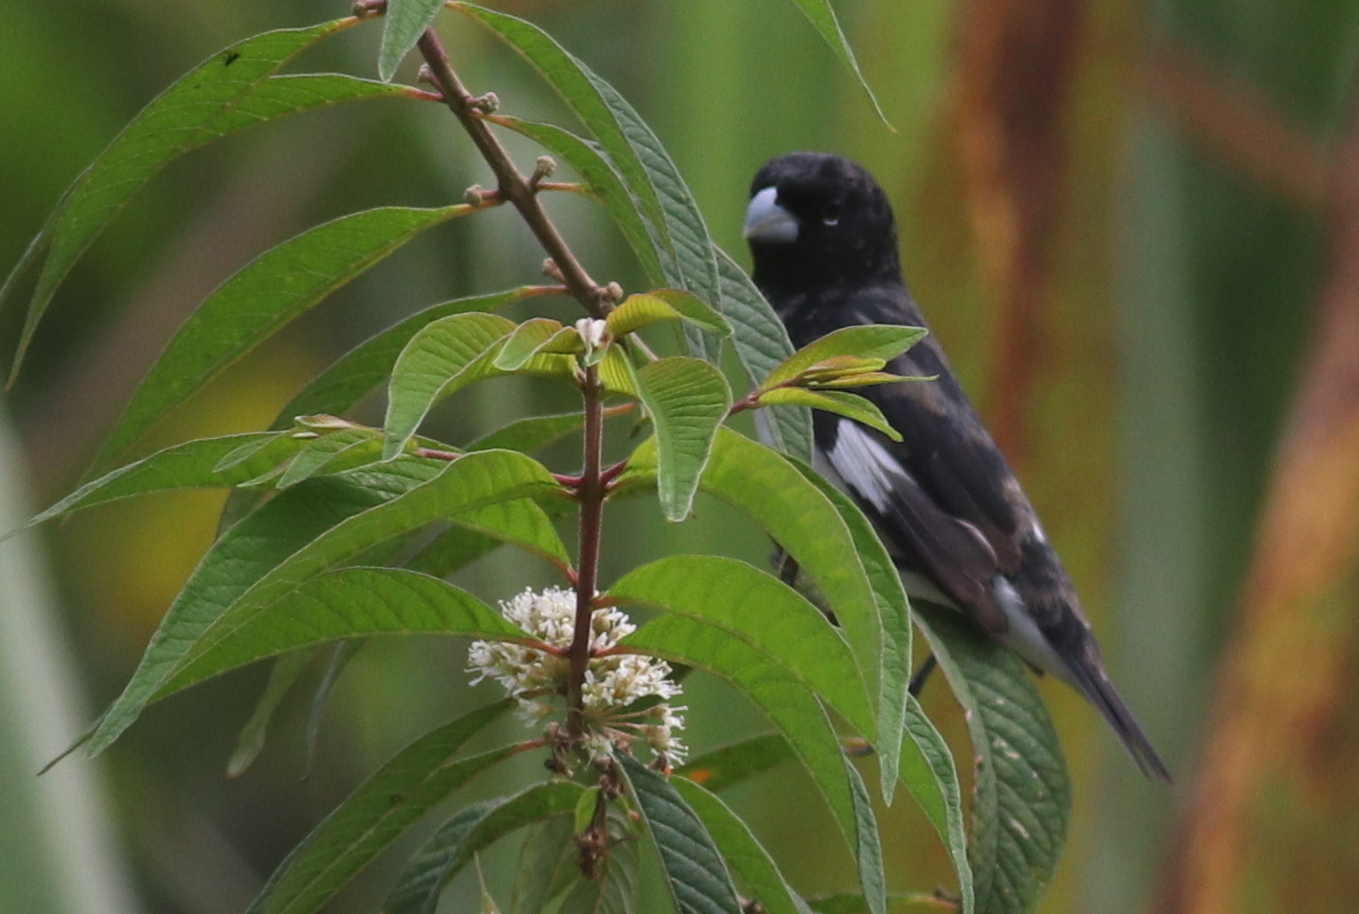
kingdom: Animalia
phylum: Chordata
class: Aves
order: Passeriformes
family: Thraupidae
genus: Sporophila
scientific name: Sporophila luctuosa
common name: Black-and-white seedeater
